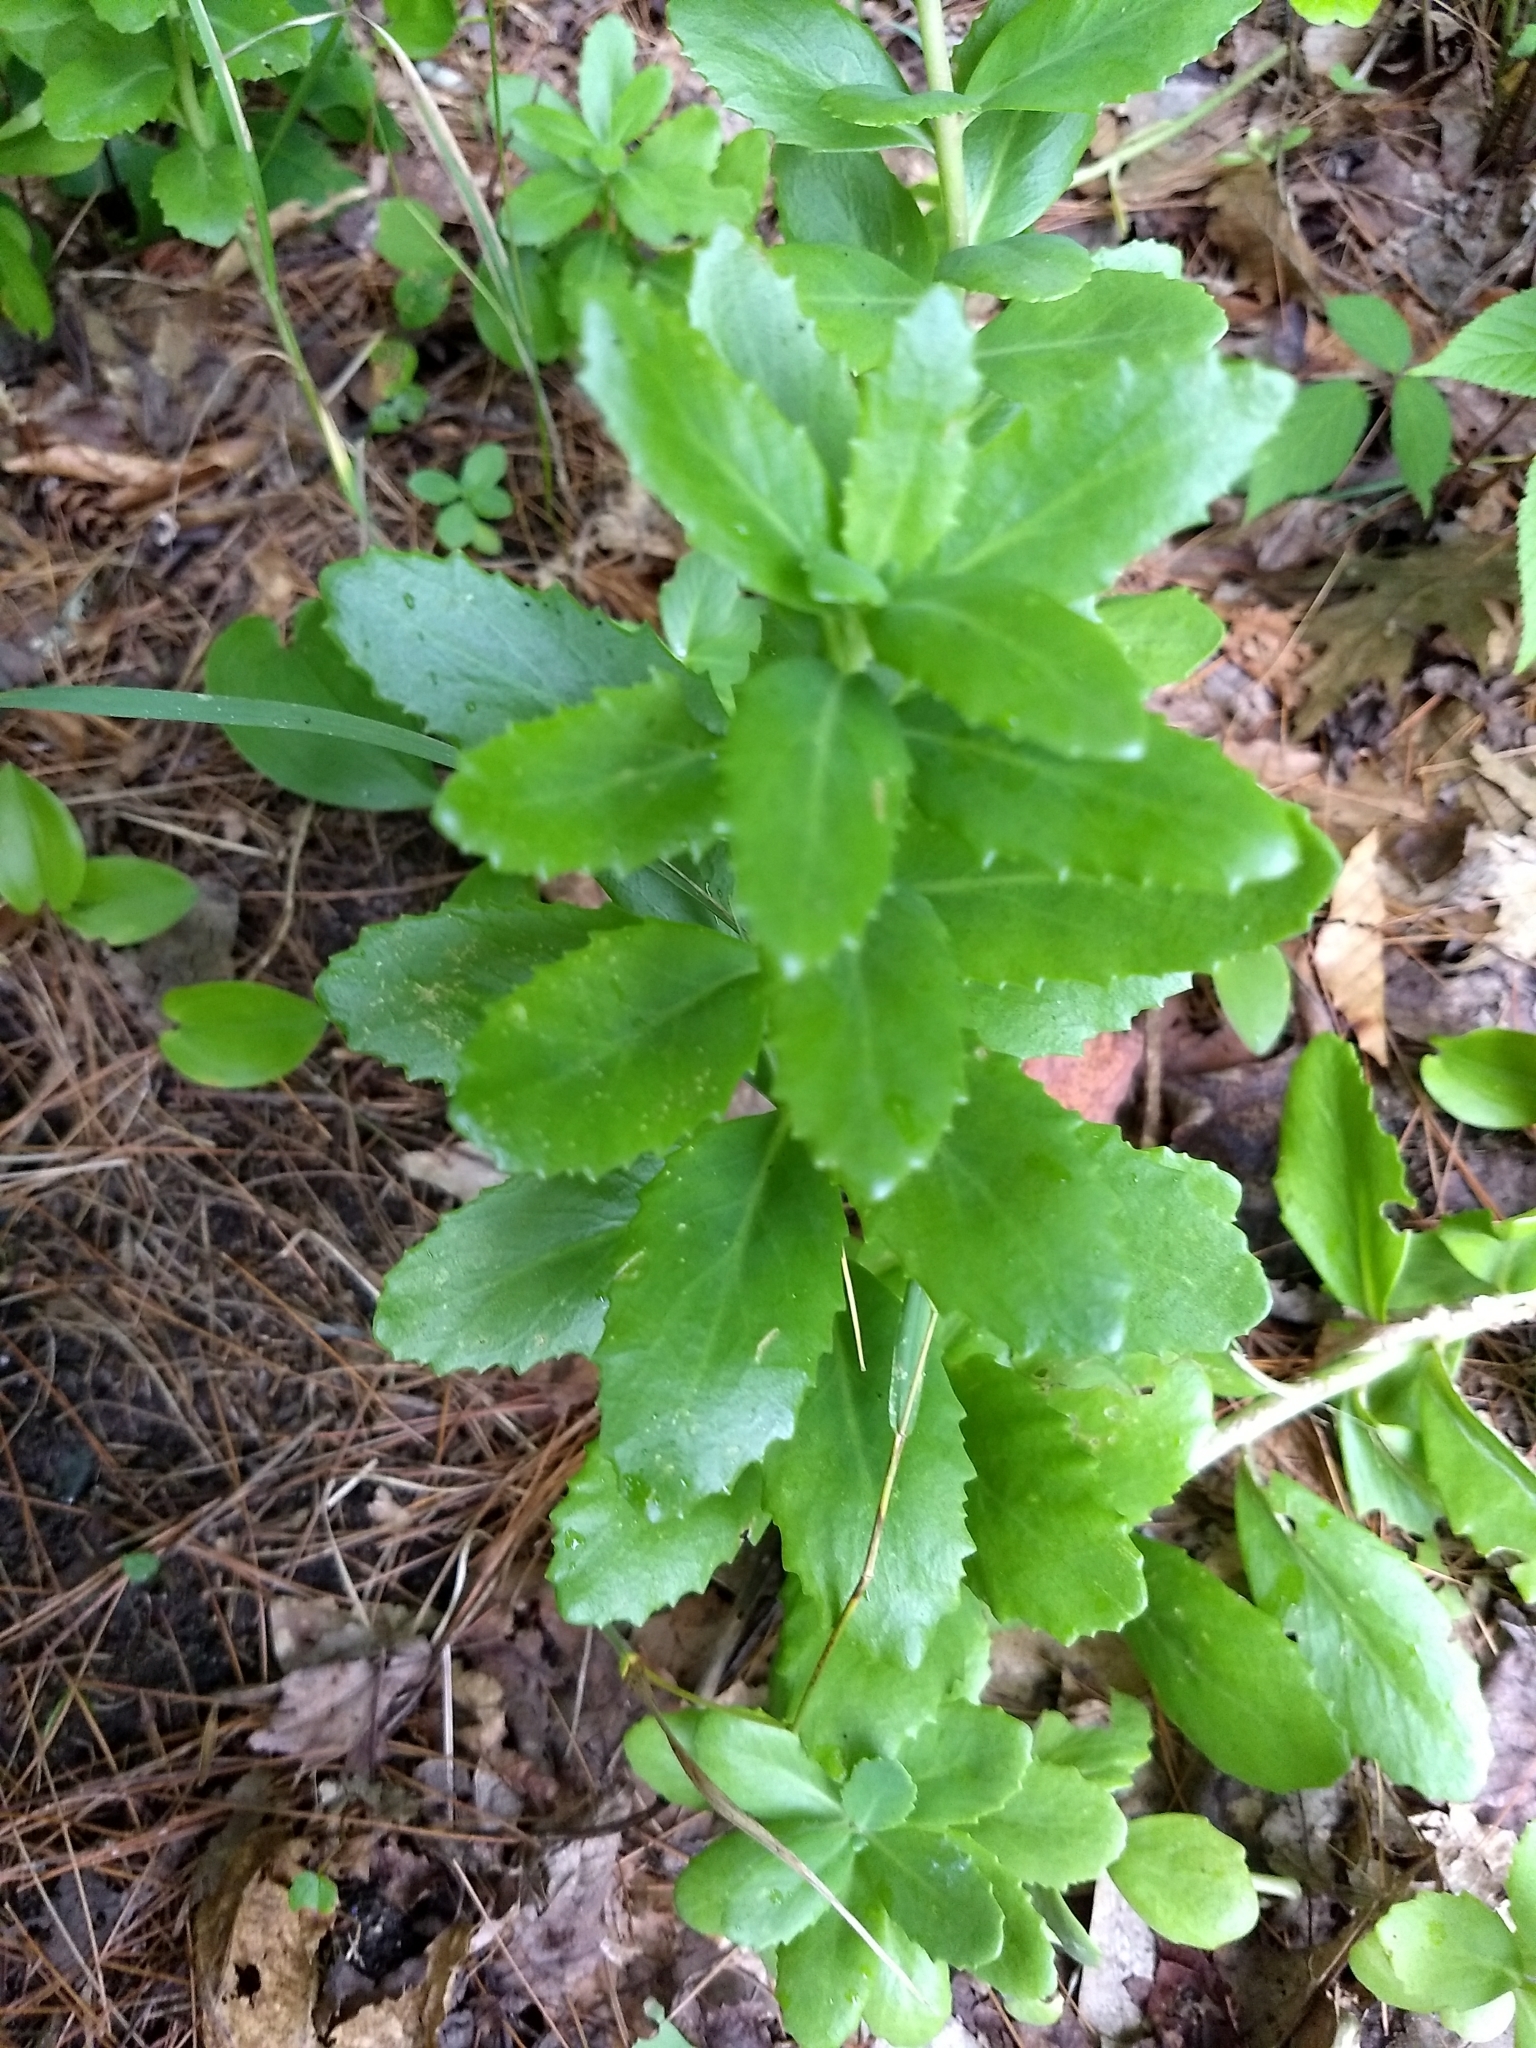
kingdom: Plantae
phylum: Tracheophyta
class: Magnoliopsida
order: Saxifragales
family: Crassulaceae
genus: Hylotelephium
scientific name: Hylotelephium telephium
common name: Live-forever
